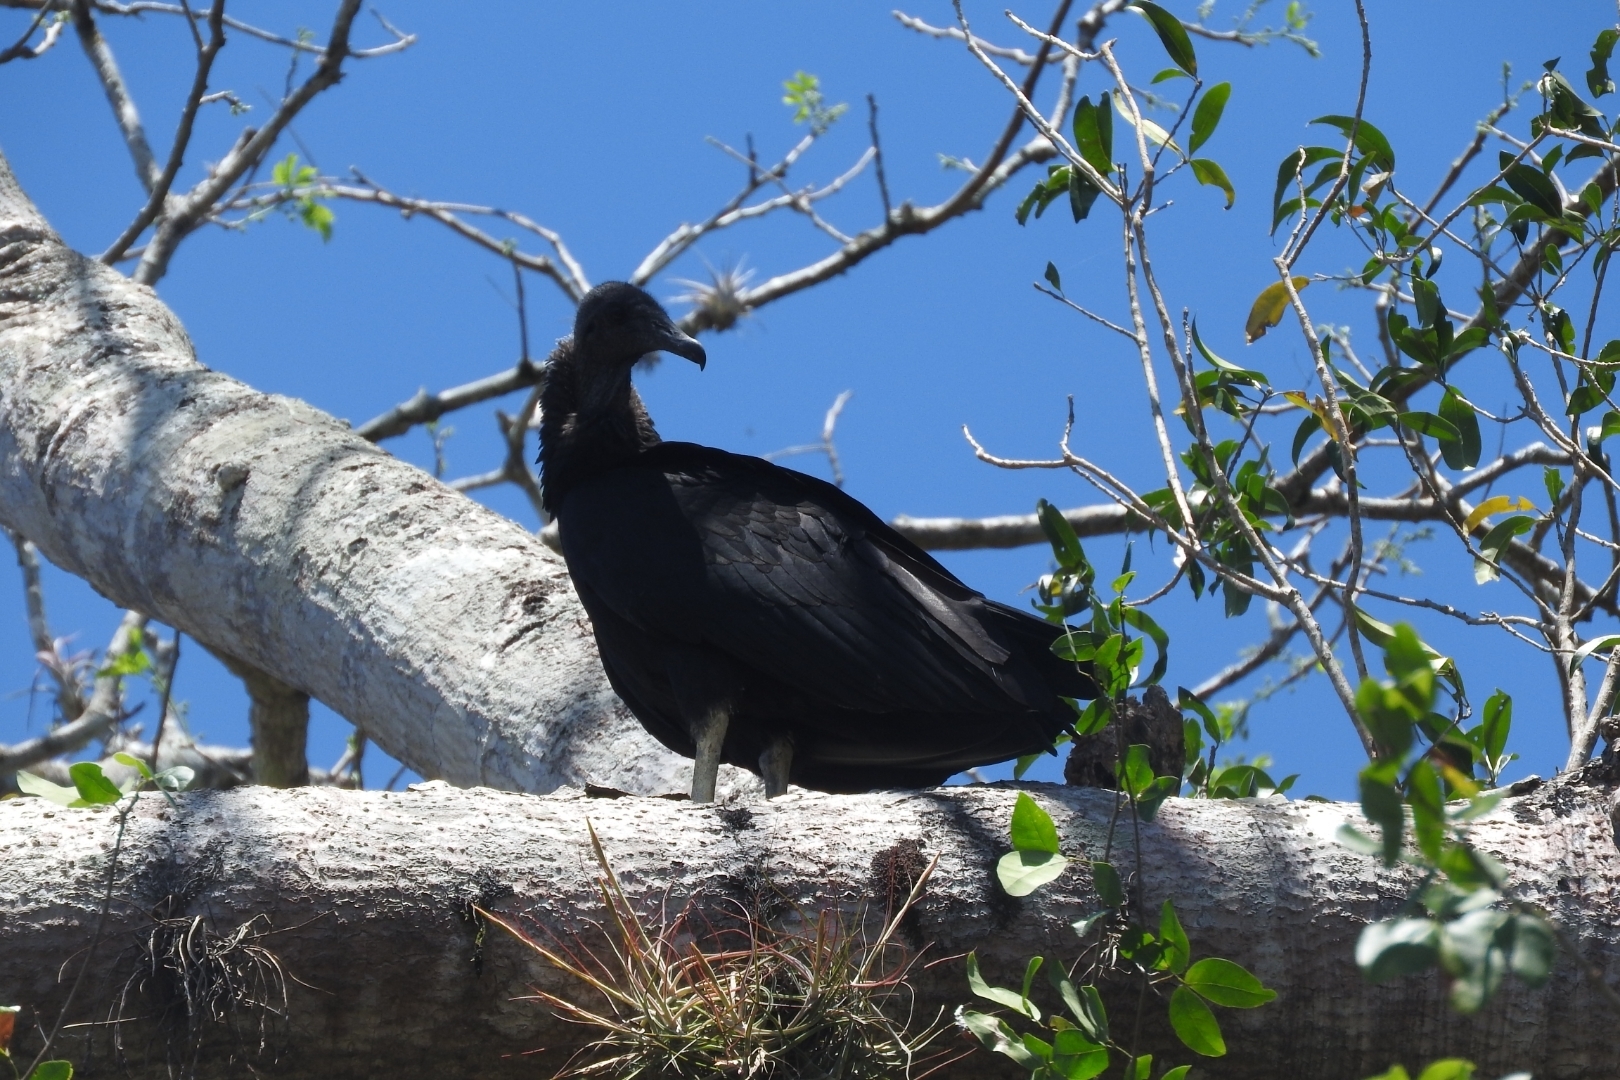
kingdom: Animalia
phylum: Chordata
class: Aves
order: Accipitriformes
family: Cathartidae
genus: Coragyps
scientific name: Coragyps atratus
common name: Black vulture
